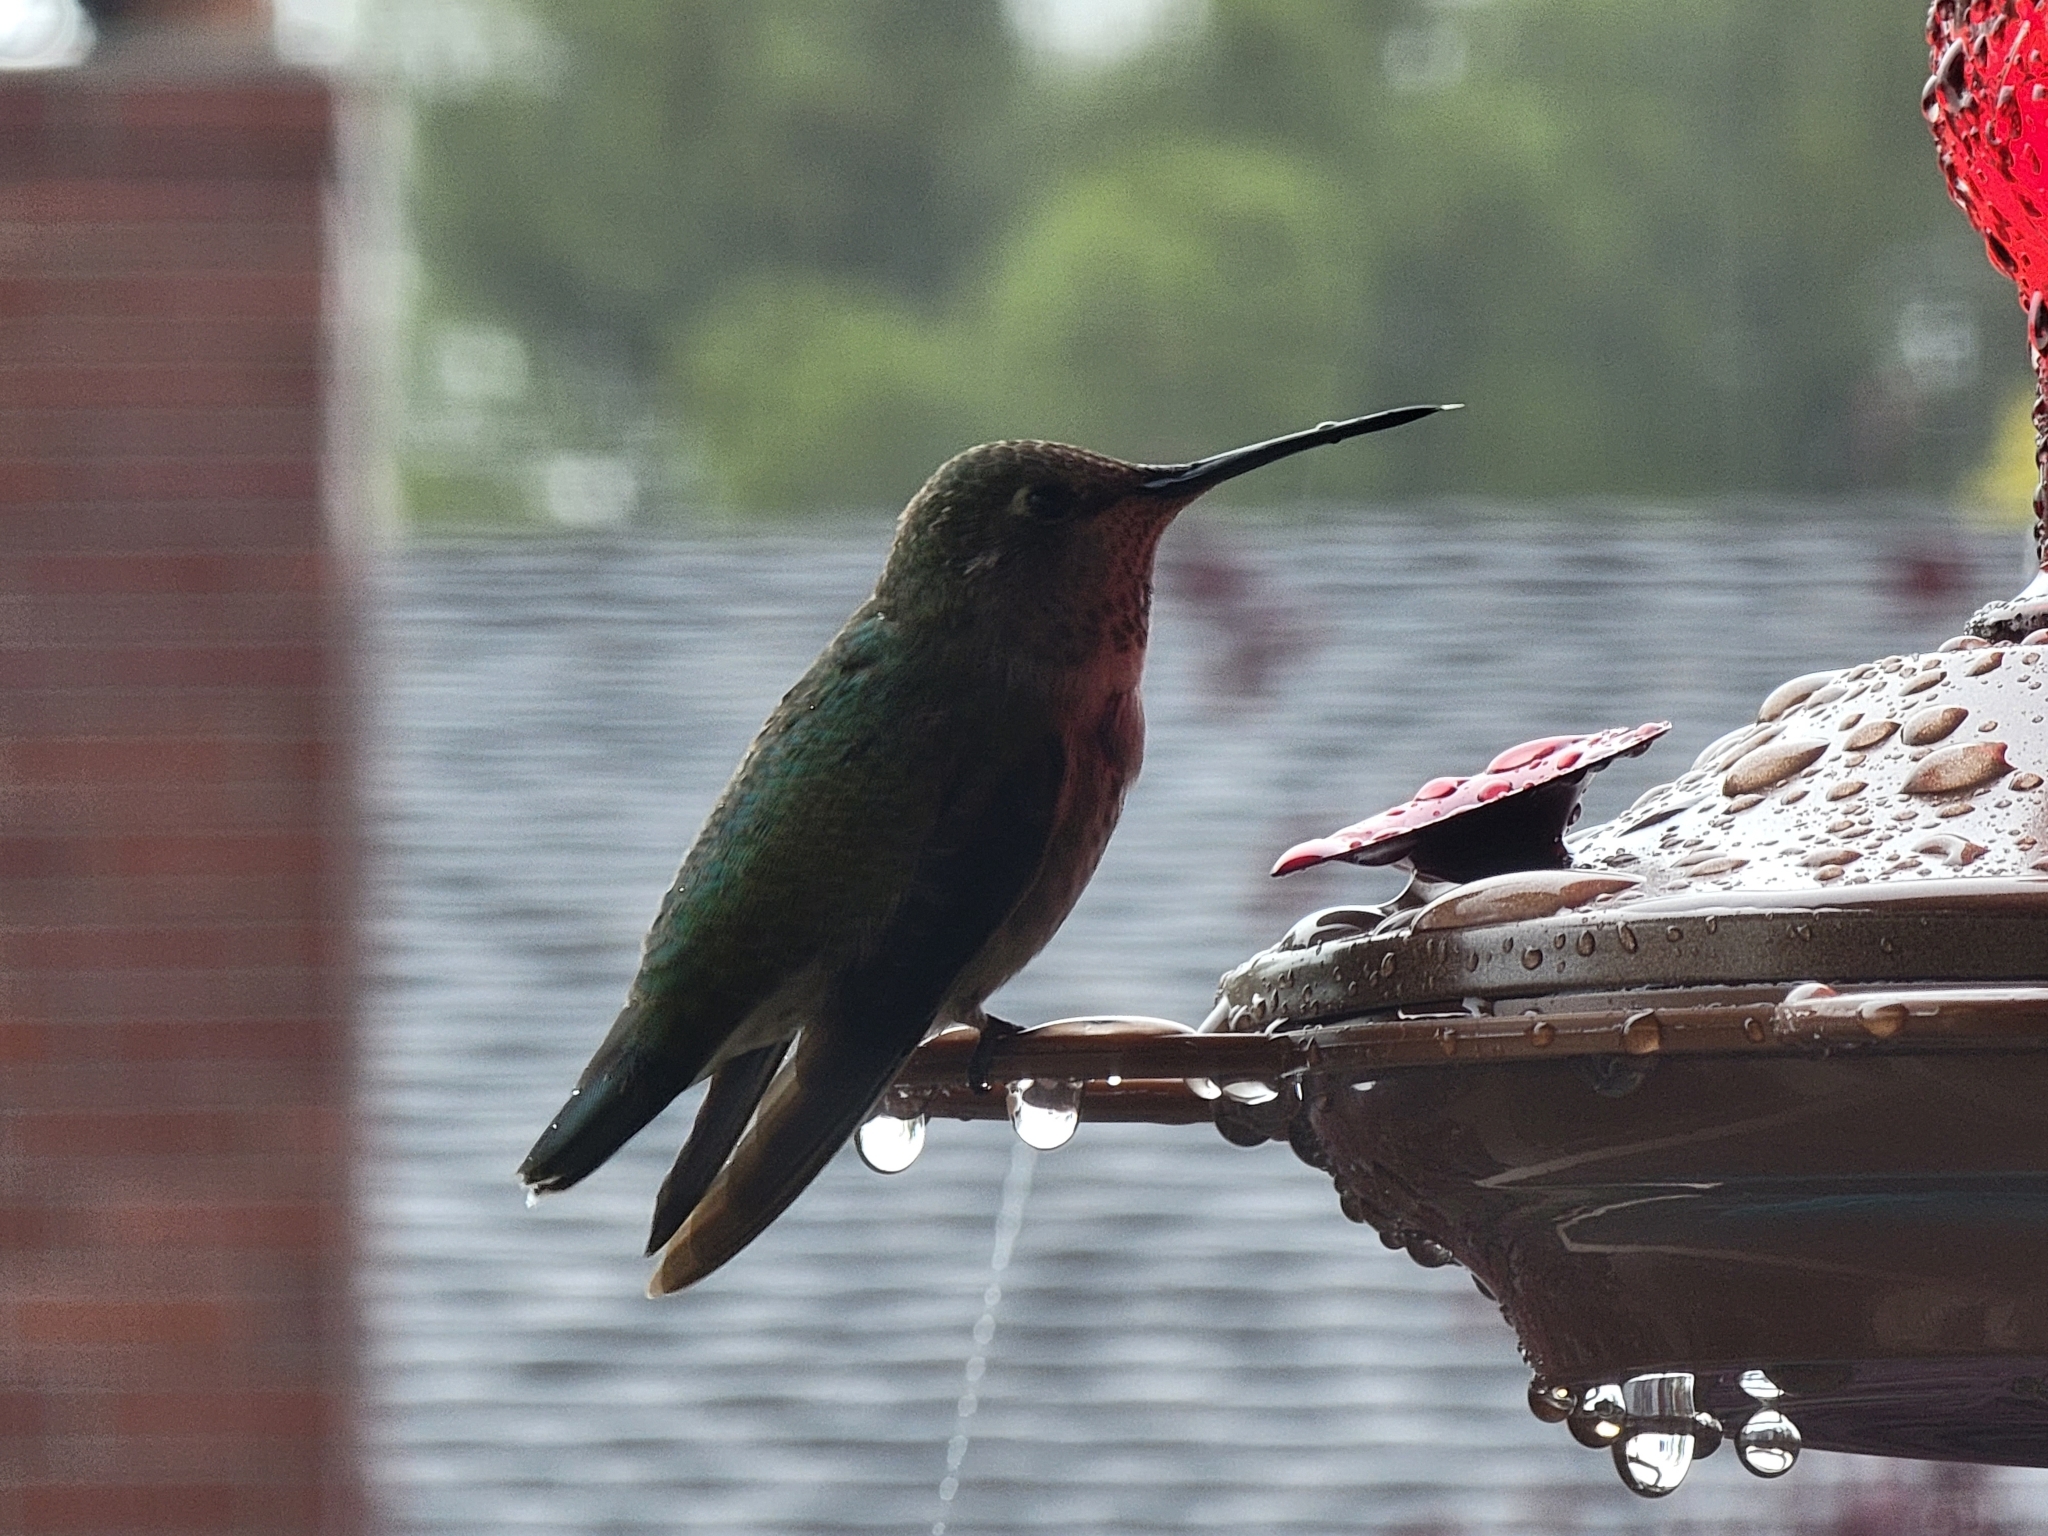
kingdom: Animalia
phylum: Chordata
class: Aves
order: Apodiformes
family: Trochilidae
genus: Calypte
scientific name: Calypte anna
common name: Anna's hummingbird
